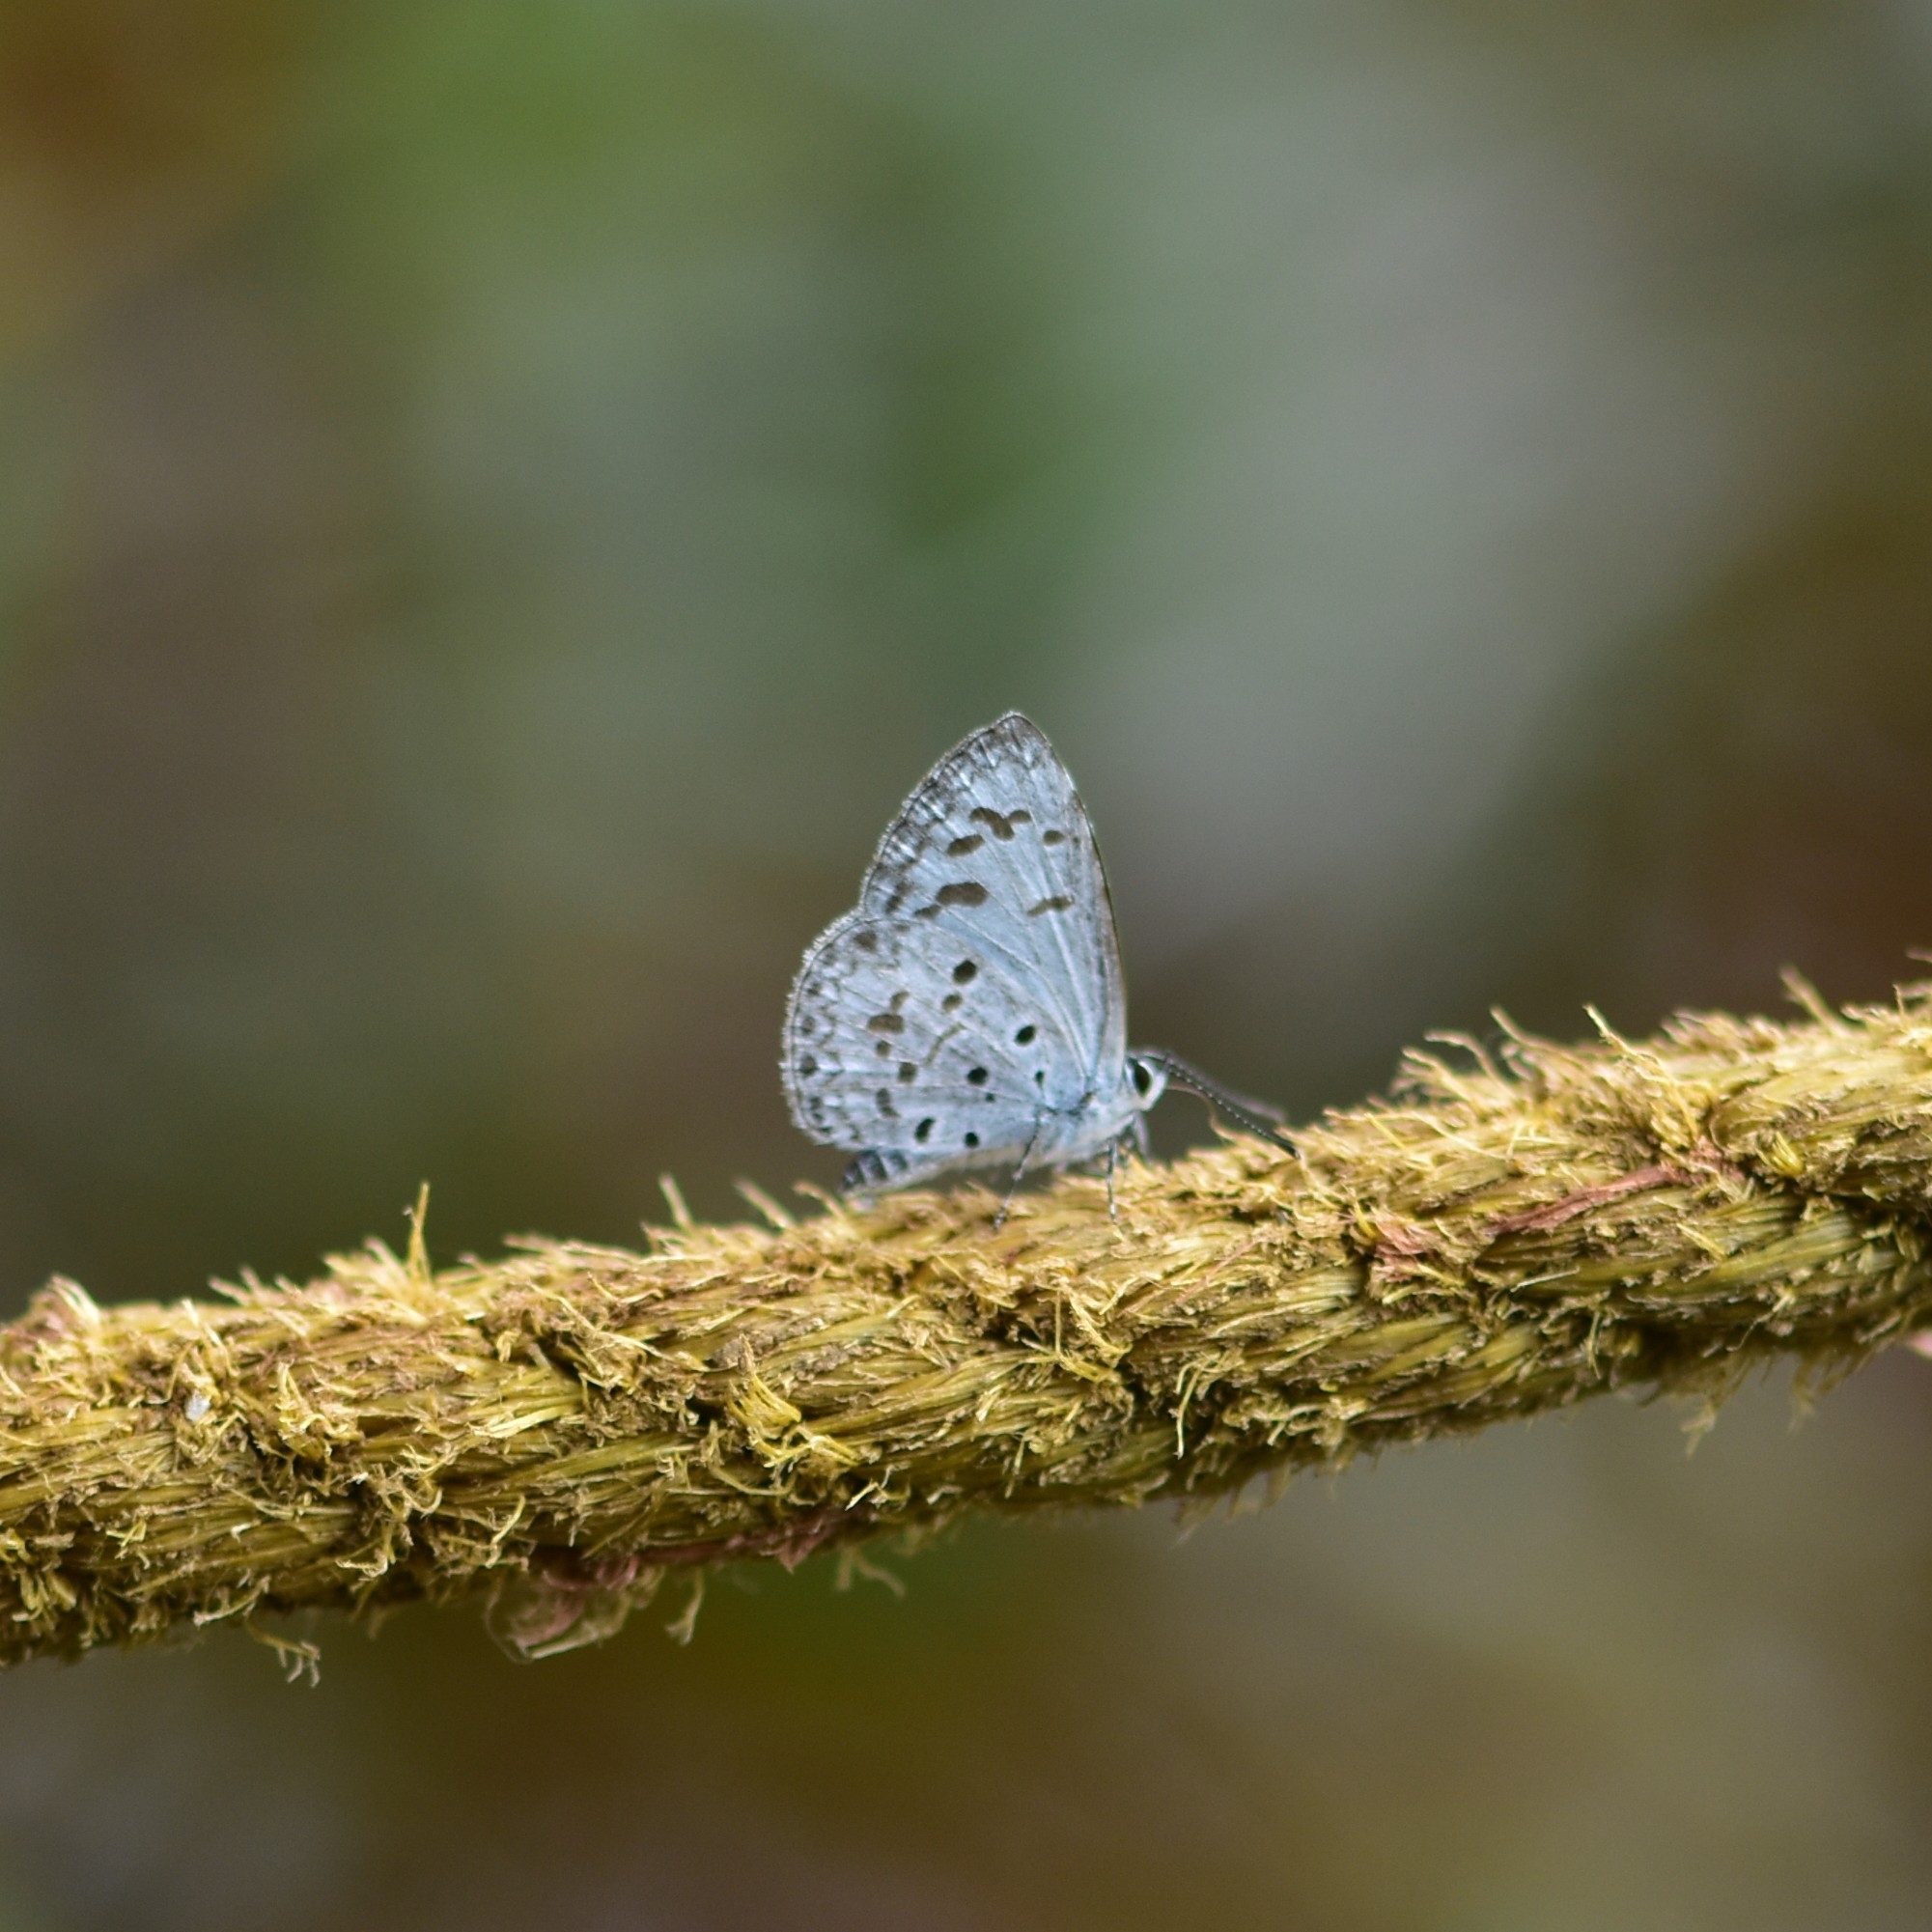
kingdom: Animalia
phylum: Arthropoda
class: Insecta
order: Lepidoptera
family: Lycaenidae
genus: Acytolepis
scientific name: Acytolepis puspa
